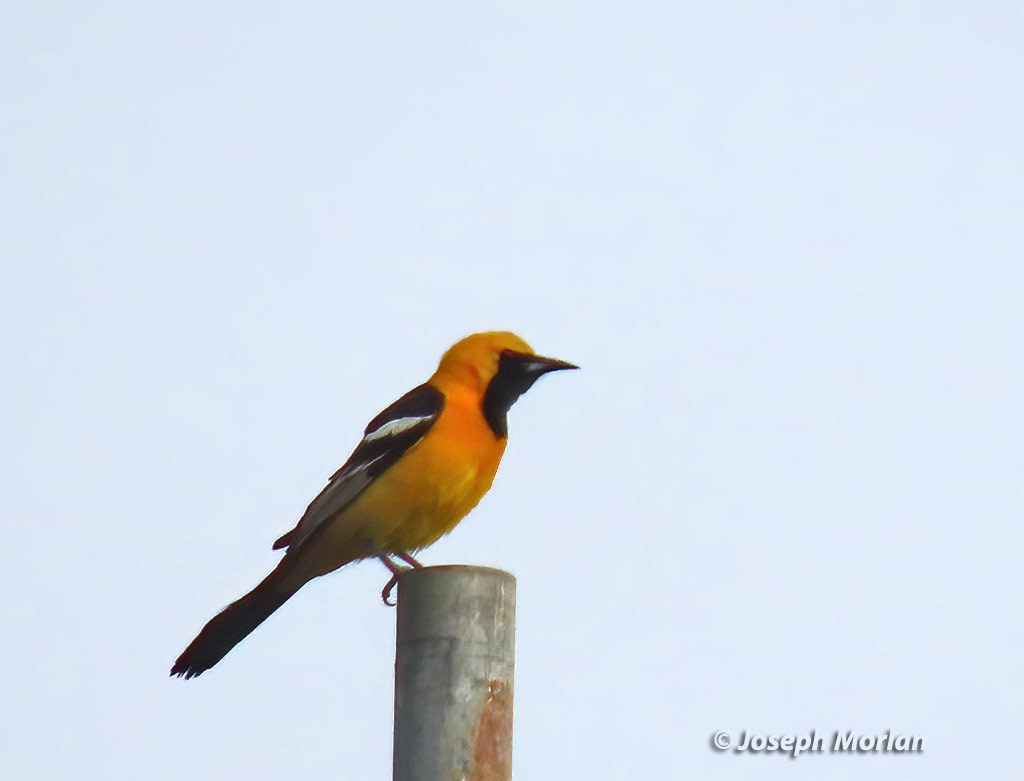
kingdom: Animalia
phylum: Chordata
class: Aves
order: Passeriformes
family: Icteridae
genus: Icterus
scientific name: Icterus cucullatus
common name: Hooded oriole
